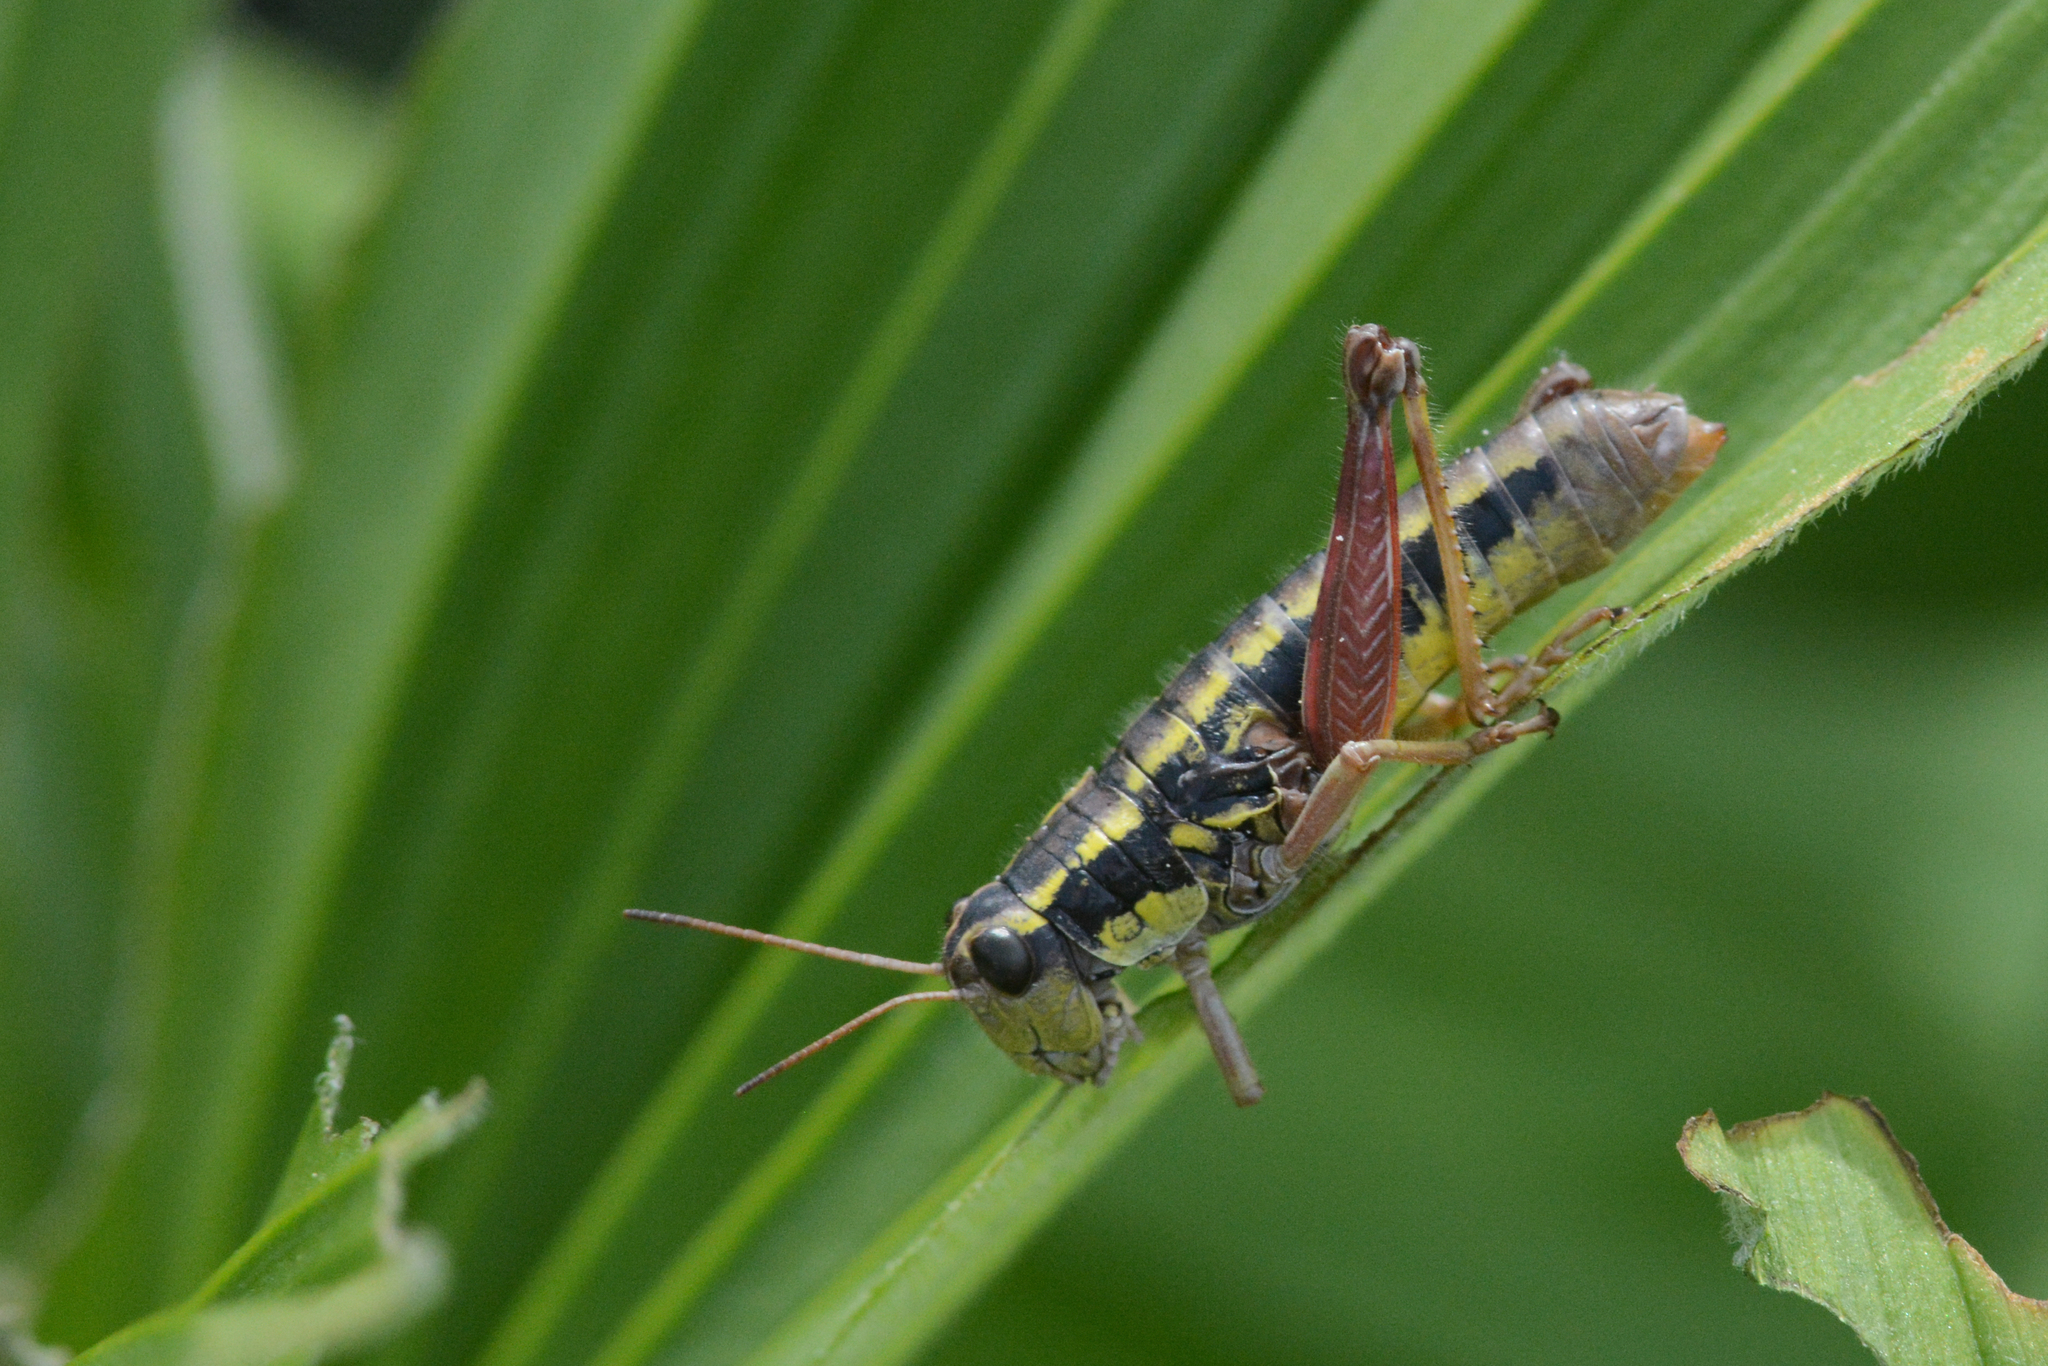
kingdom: Animalia
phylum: Arthropoda
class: Insecta
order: Orthoptera
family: Acrididae
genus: Buckellacris
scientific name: Buckellacris hispida
